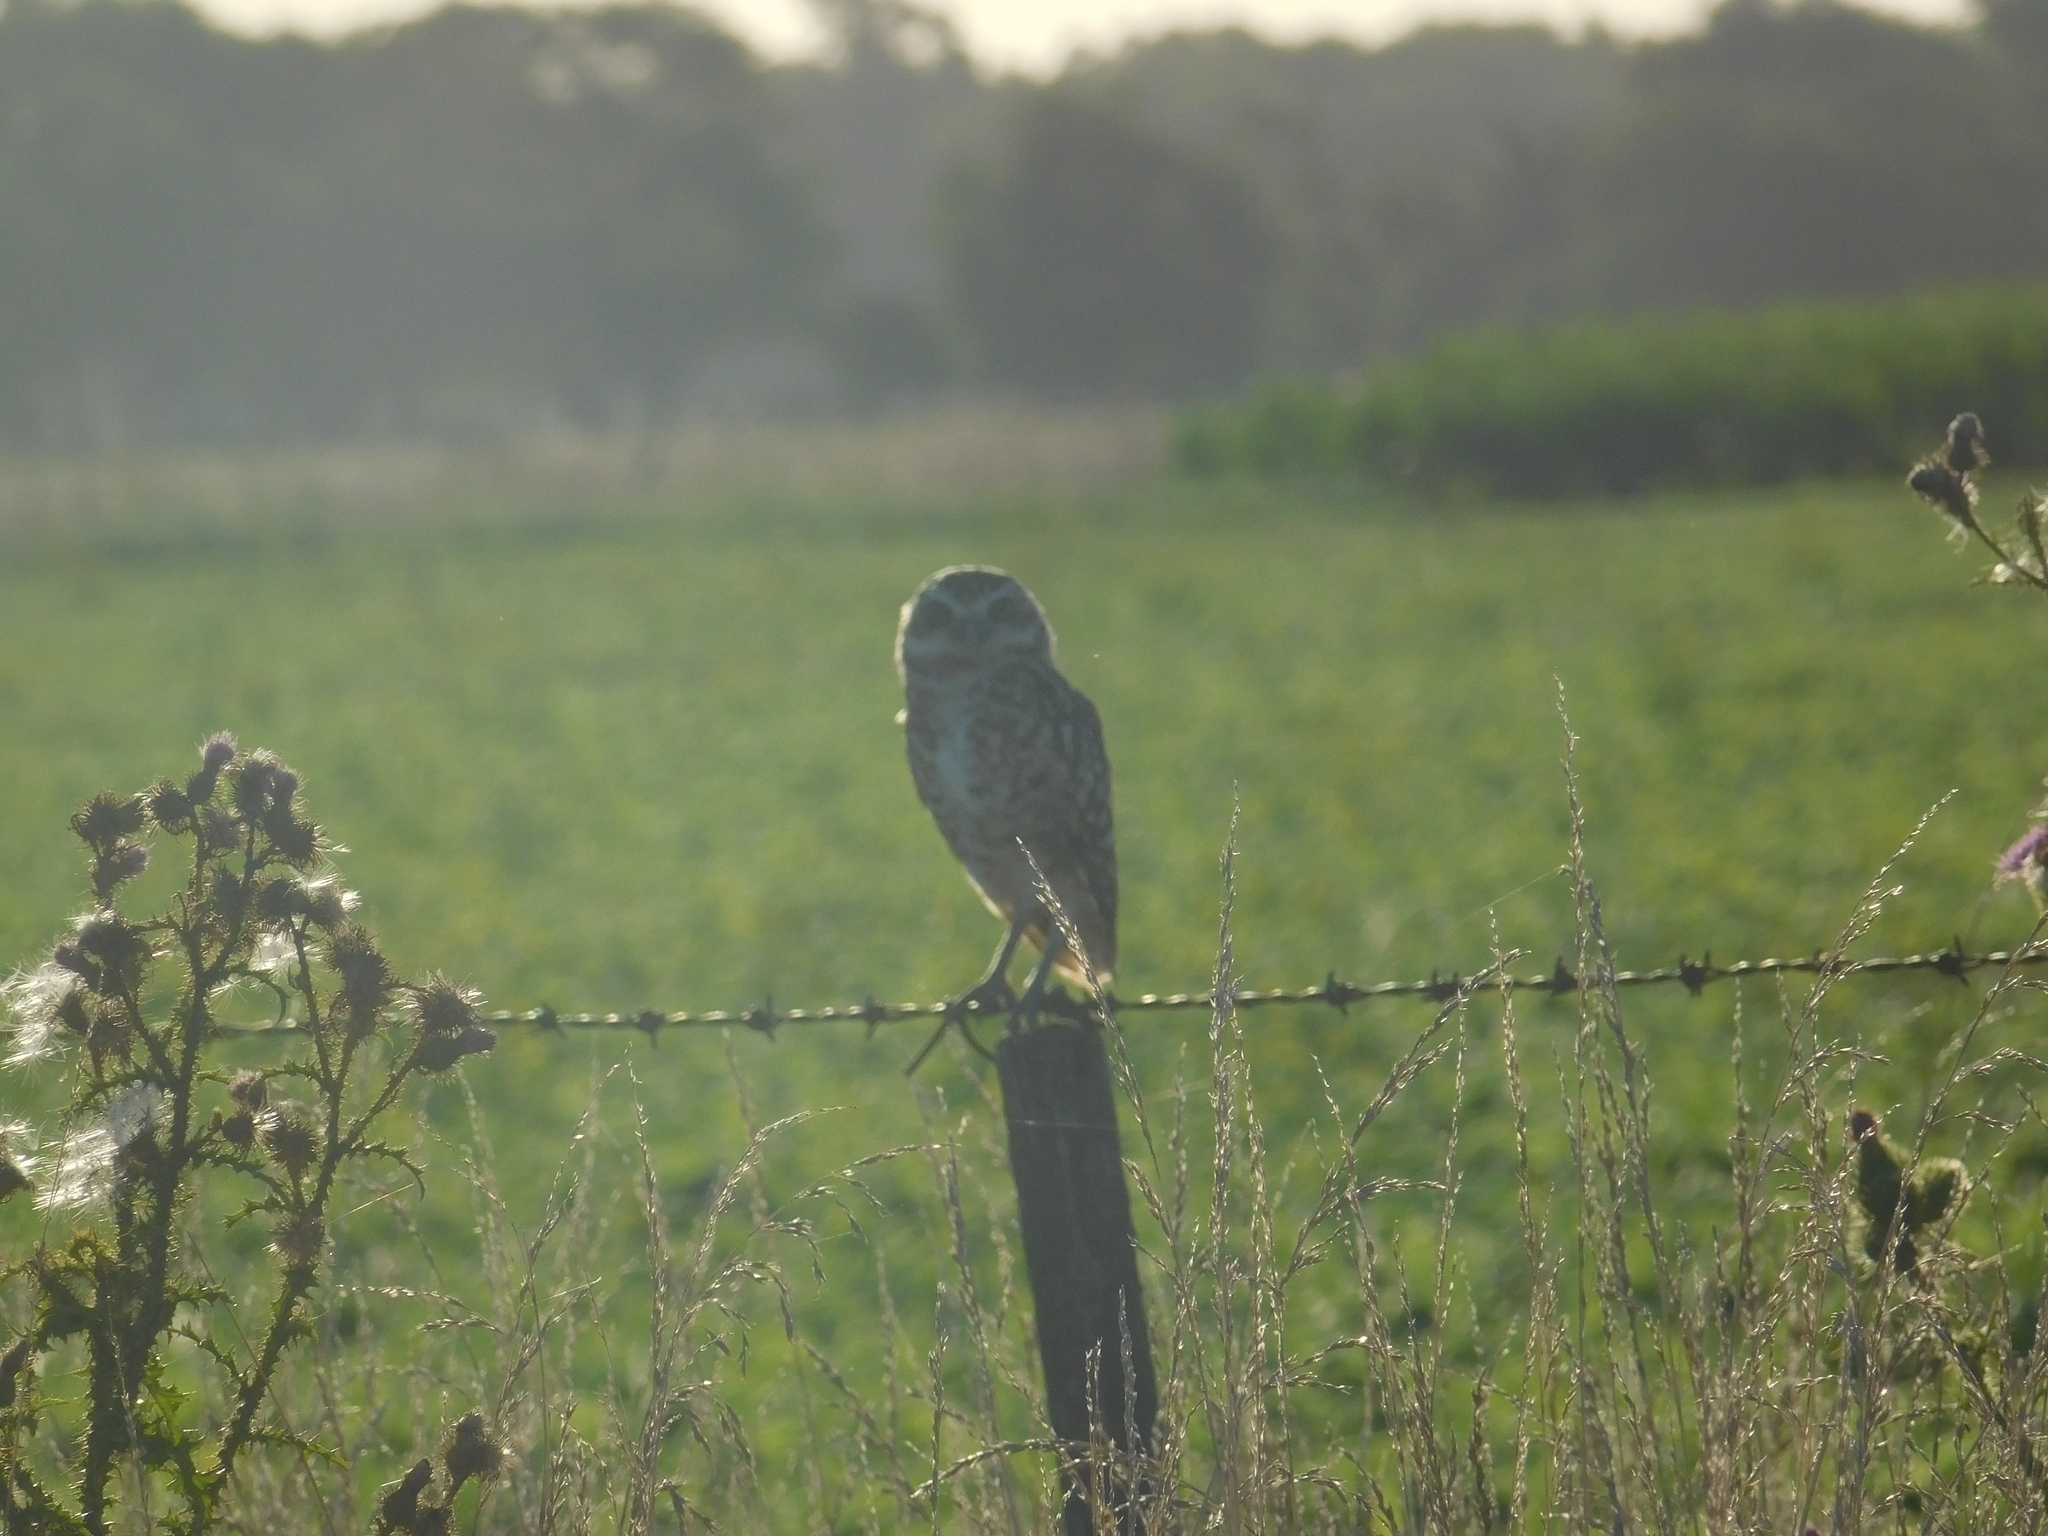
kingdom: Animalia
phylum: Chordata
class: Aves
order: Strigiformes
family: Strigidae
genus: Athene
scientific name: Athene cunicularia
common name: Burrowing owl
